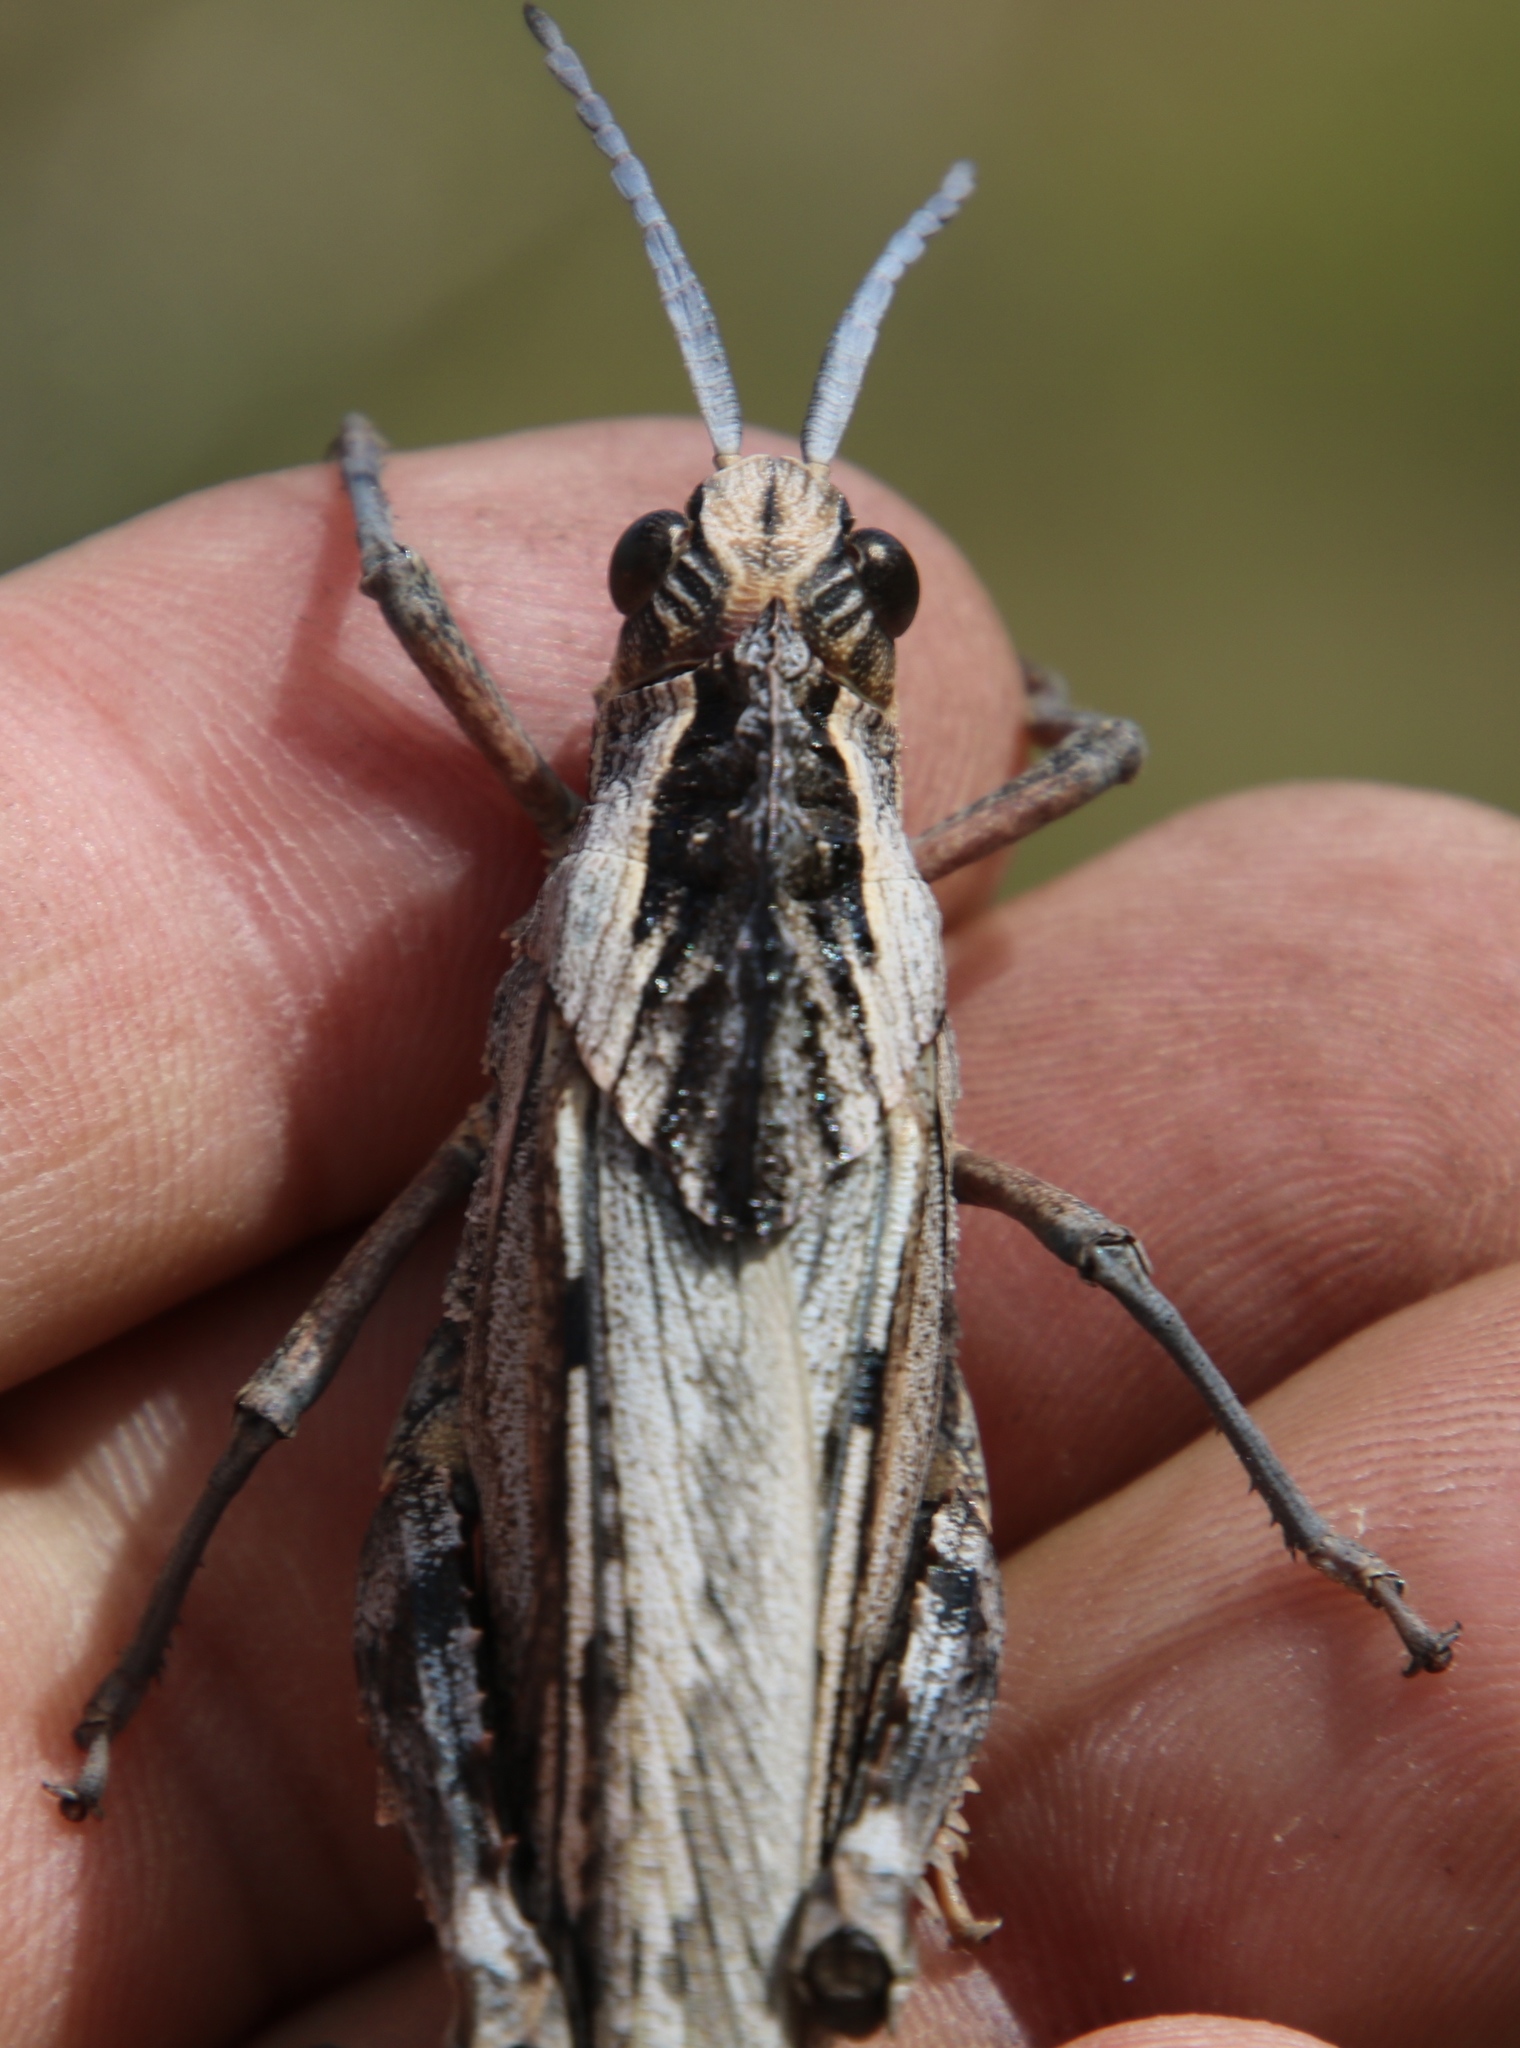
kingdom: Animalia
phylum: Arthropoda
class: Insecta
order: Orthoptera
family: Pamphagidae
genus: Porthetis
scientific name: Porthetis carinata
